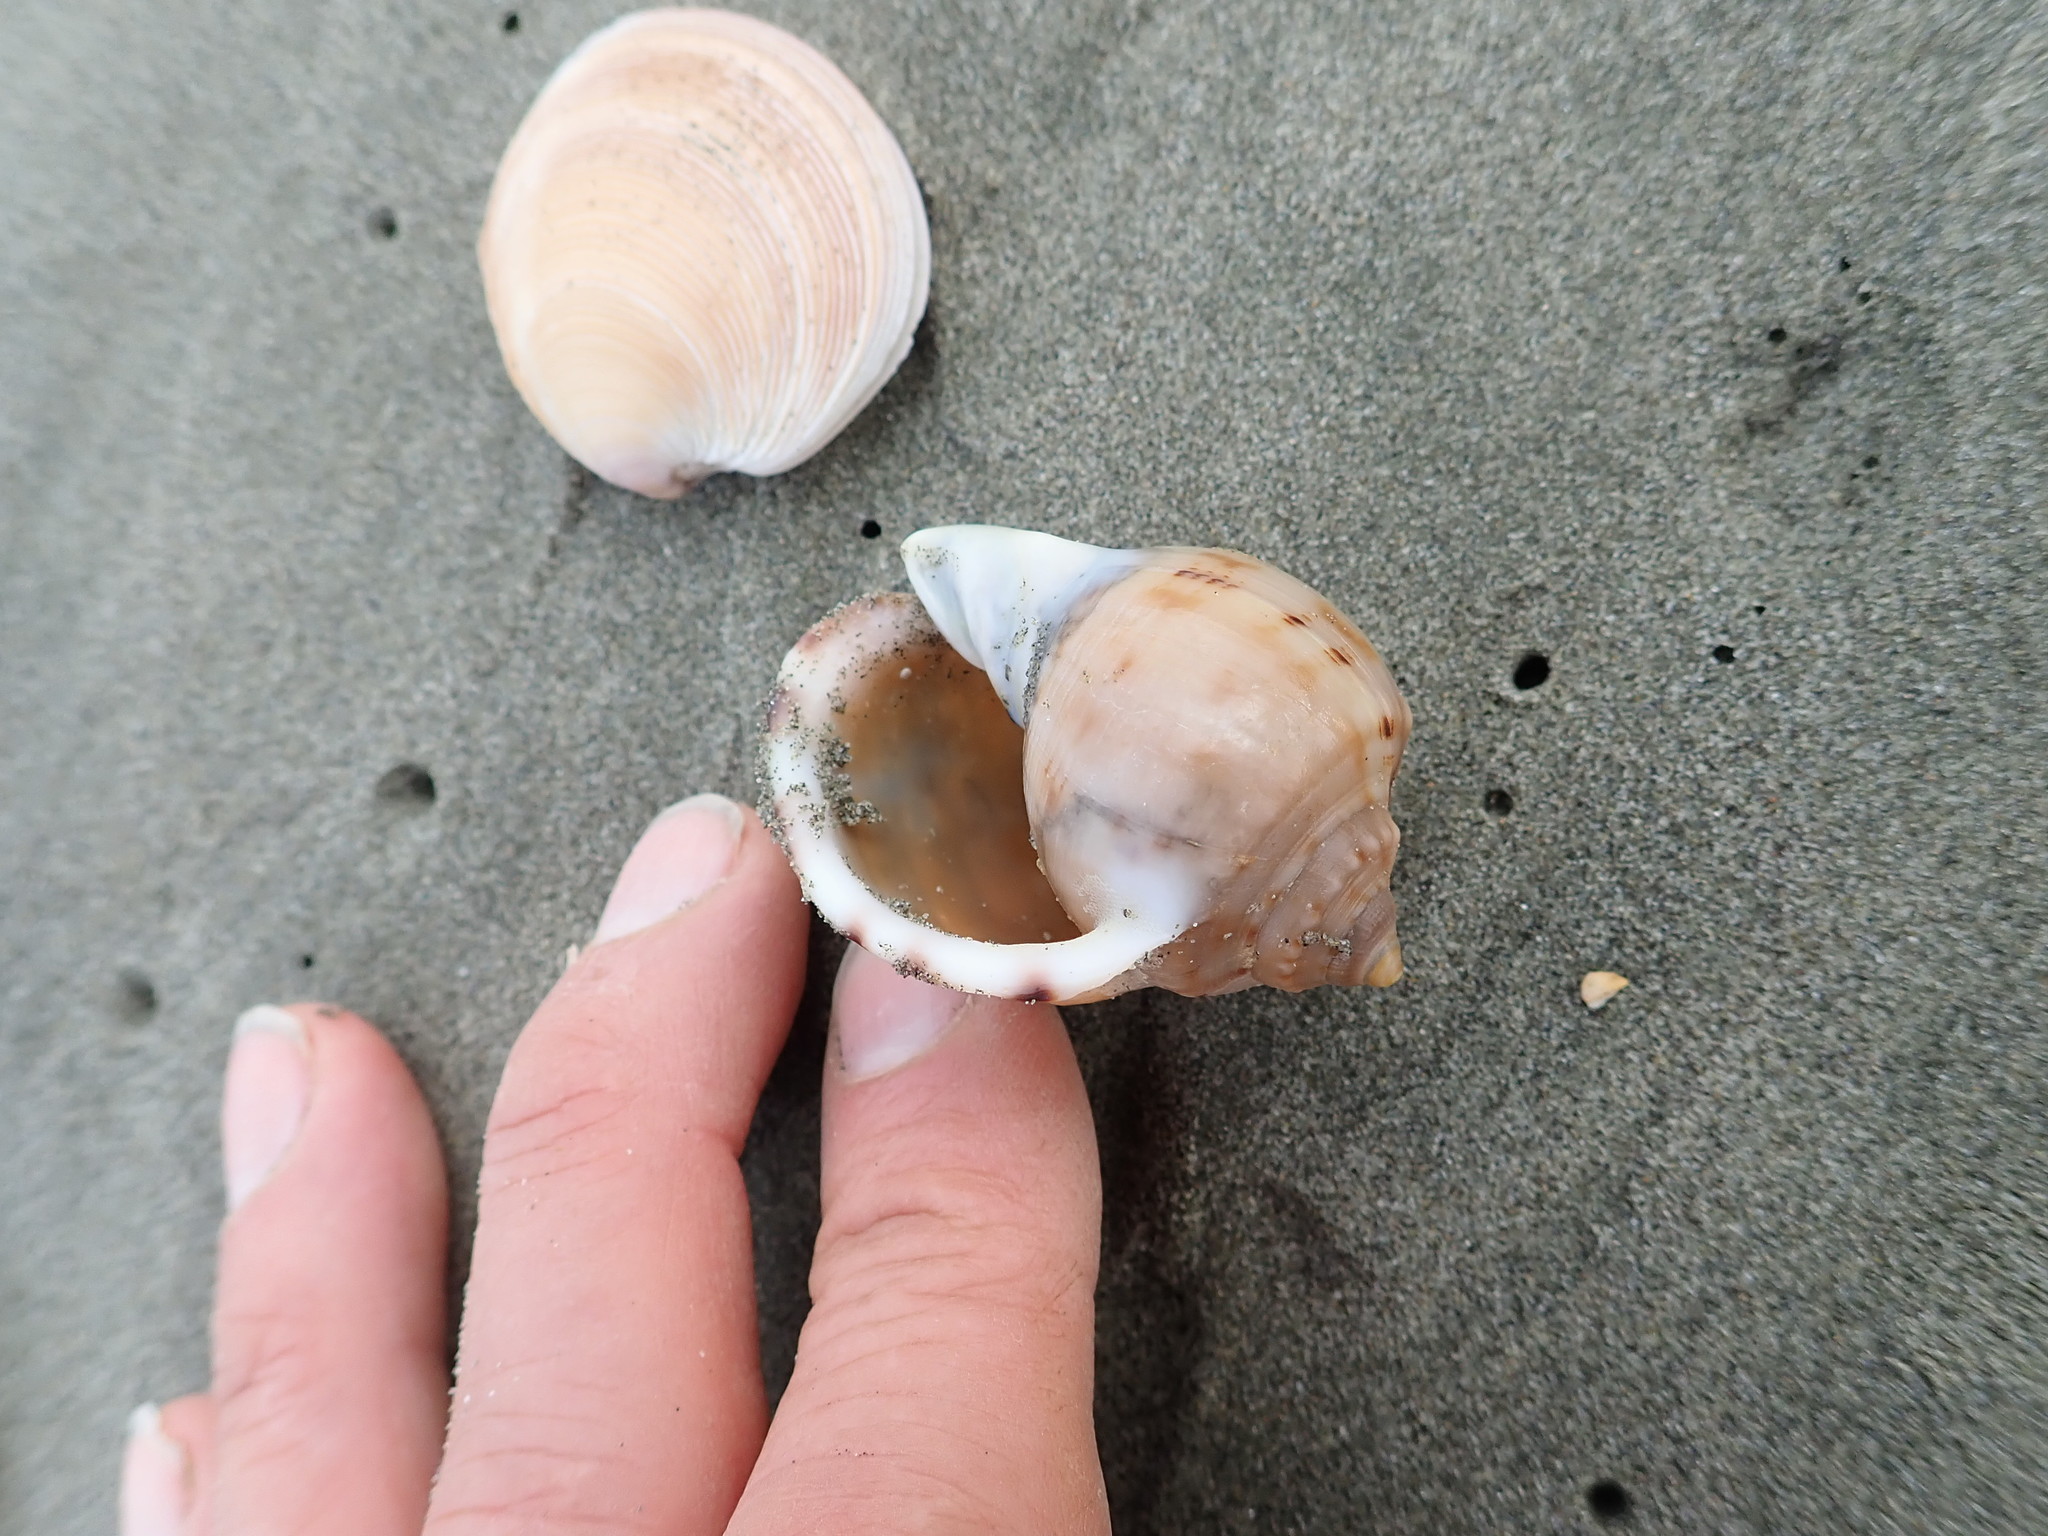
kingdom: Animalia
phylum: Mollusca
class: Gastropoda
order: Littorinimorpha
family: Cassidae
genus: Semicassis
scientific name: Semicassis pyrum
